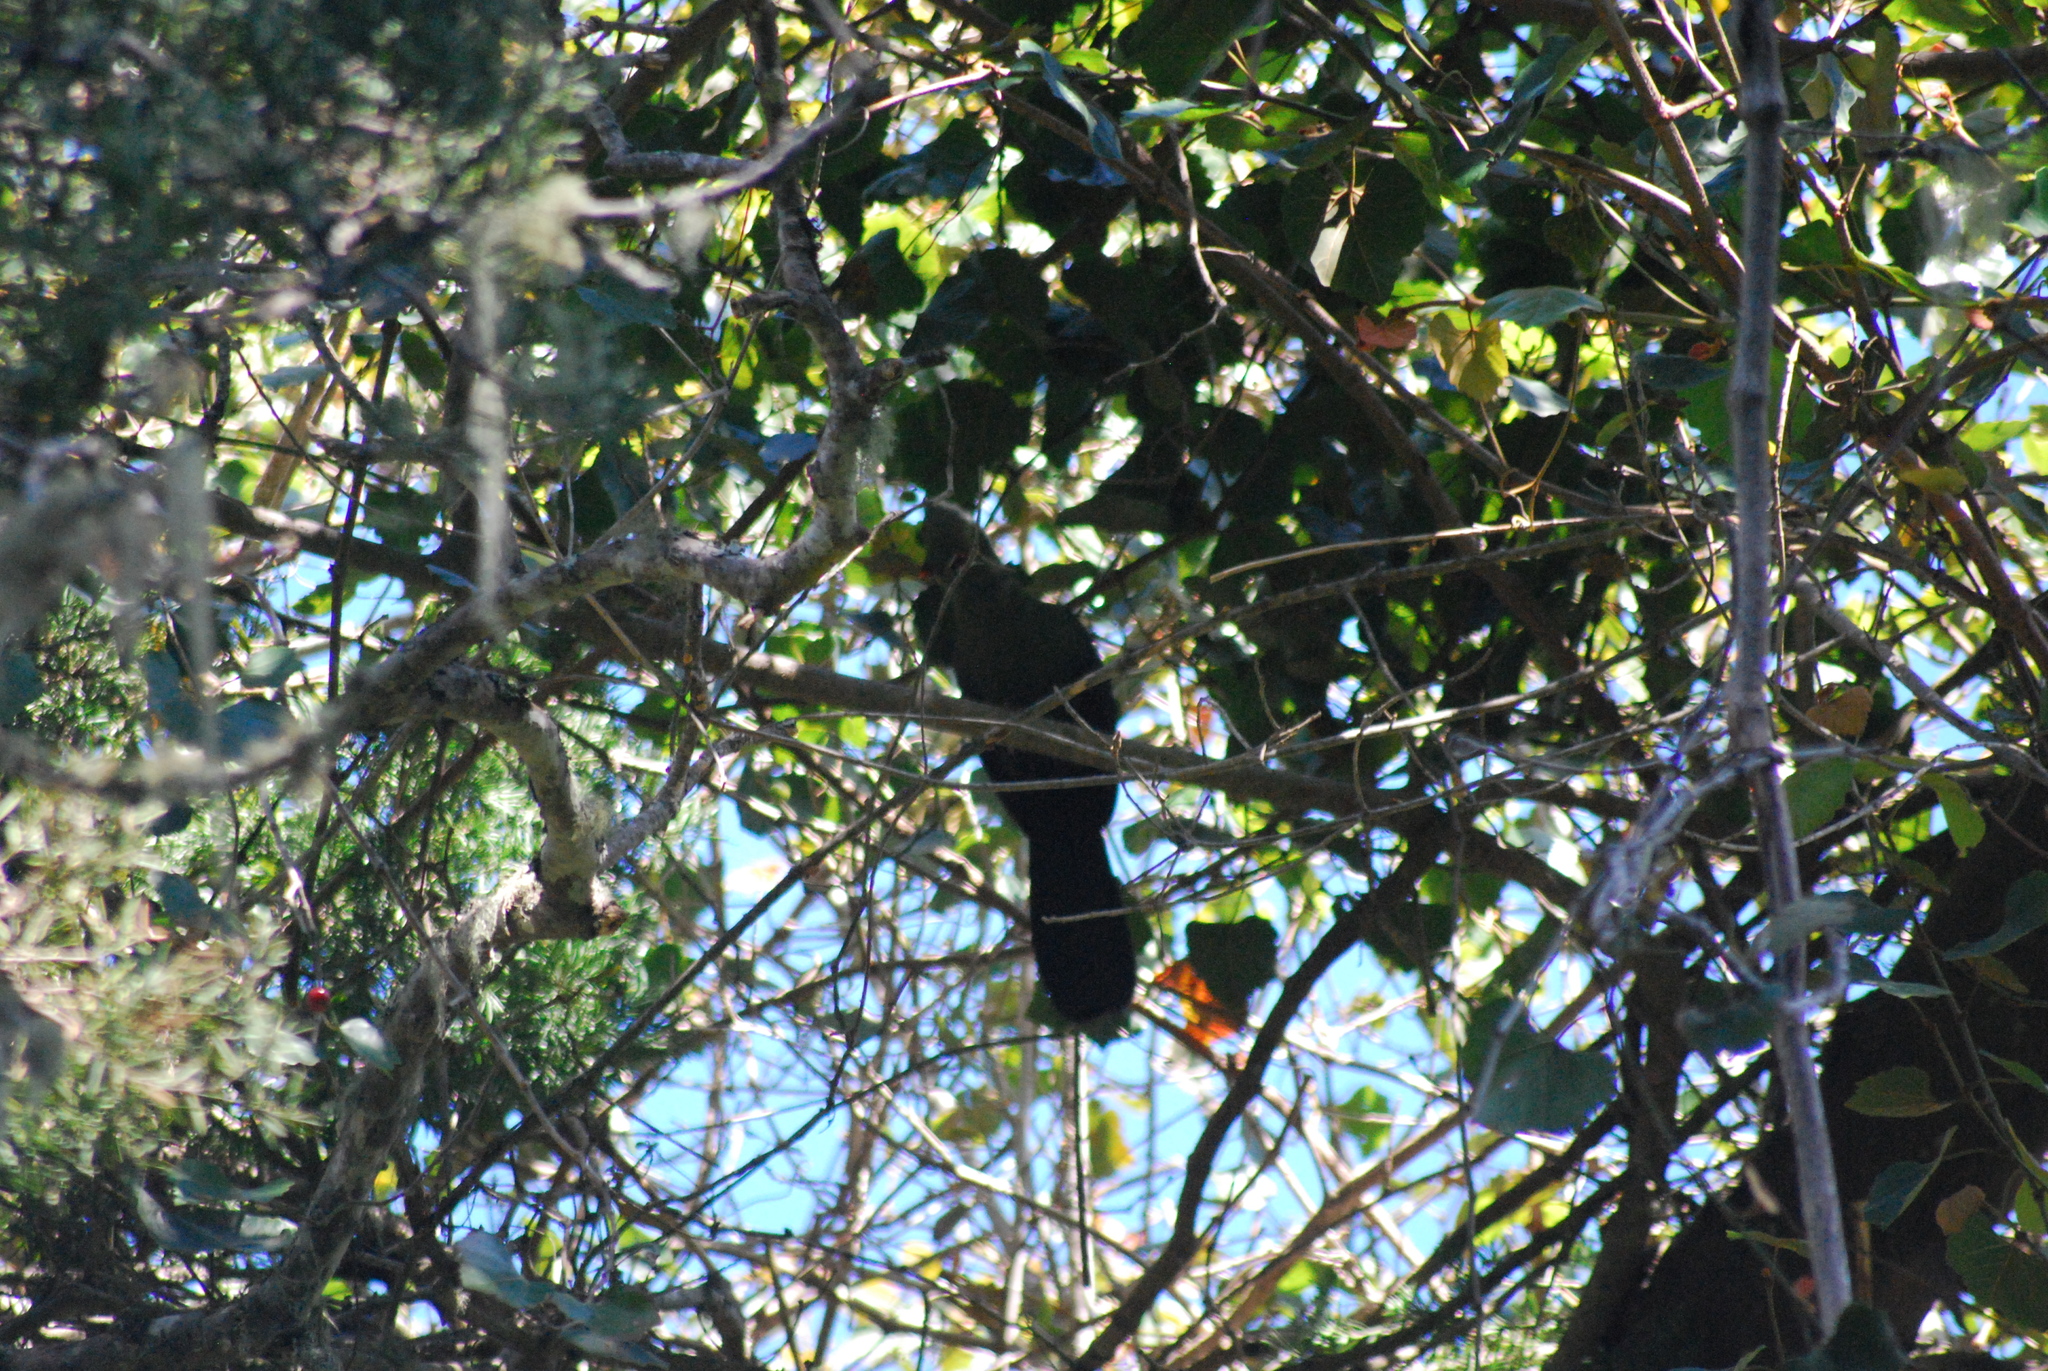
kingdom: Animalia
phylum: Chordata
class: Aves
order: Musophagiformes
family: Musophagidae
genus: Tauraco
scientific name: Tauraco corythaix
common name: Knysna turaco
